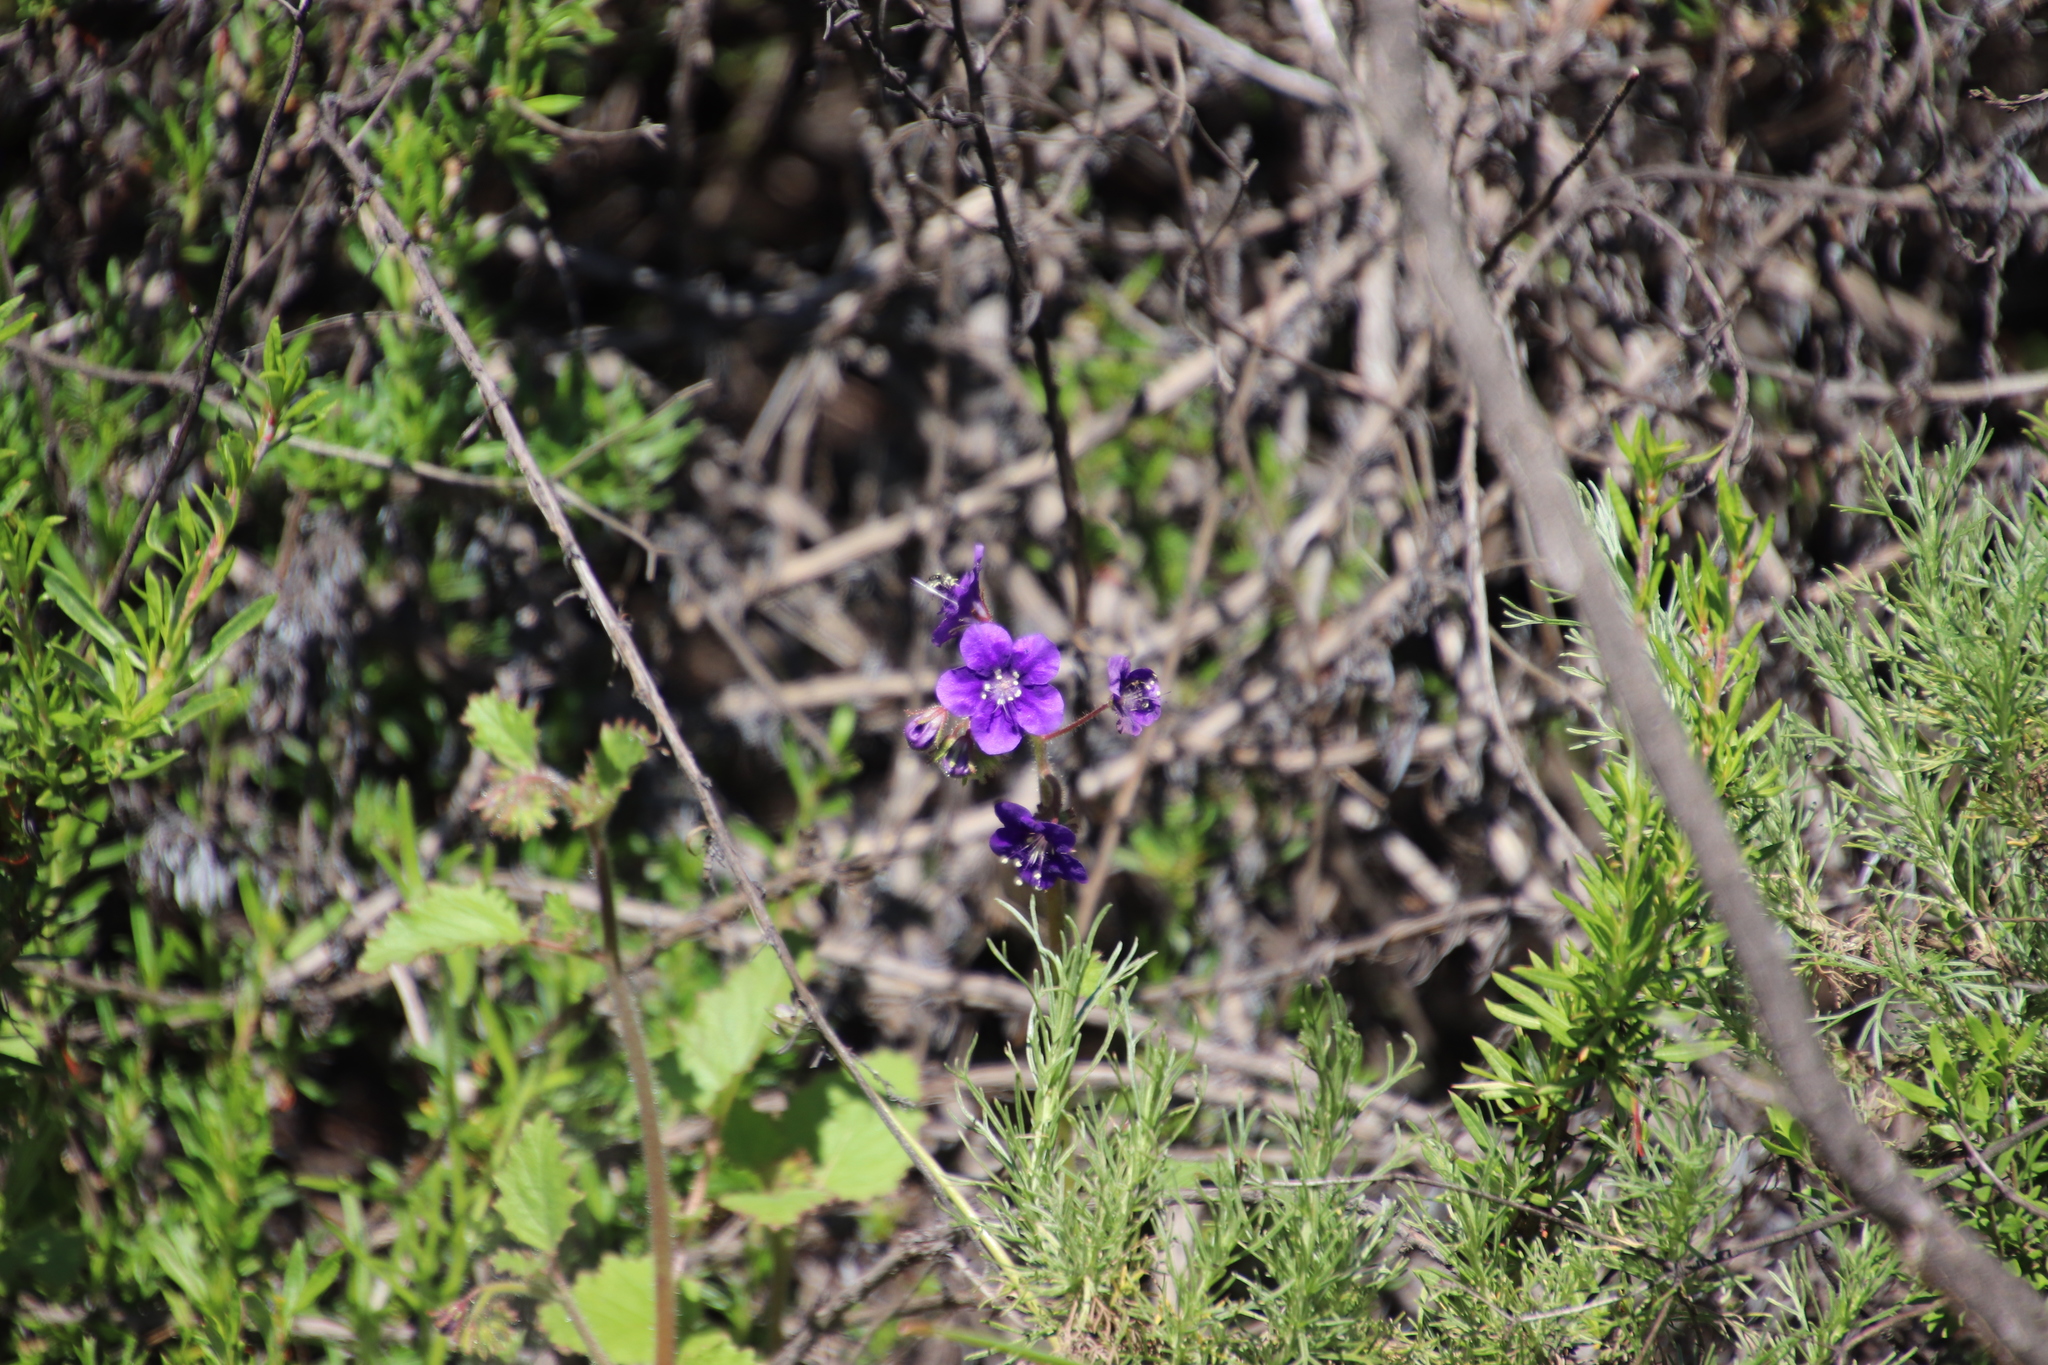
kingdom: Plantae
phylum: Tracheophyta
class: Magnoliopsida
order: Boraginales
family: Hydrophyllaceae
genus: Phacelia
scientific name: Phacelia parryi
